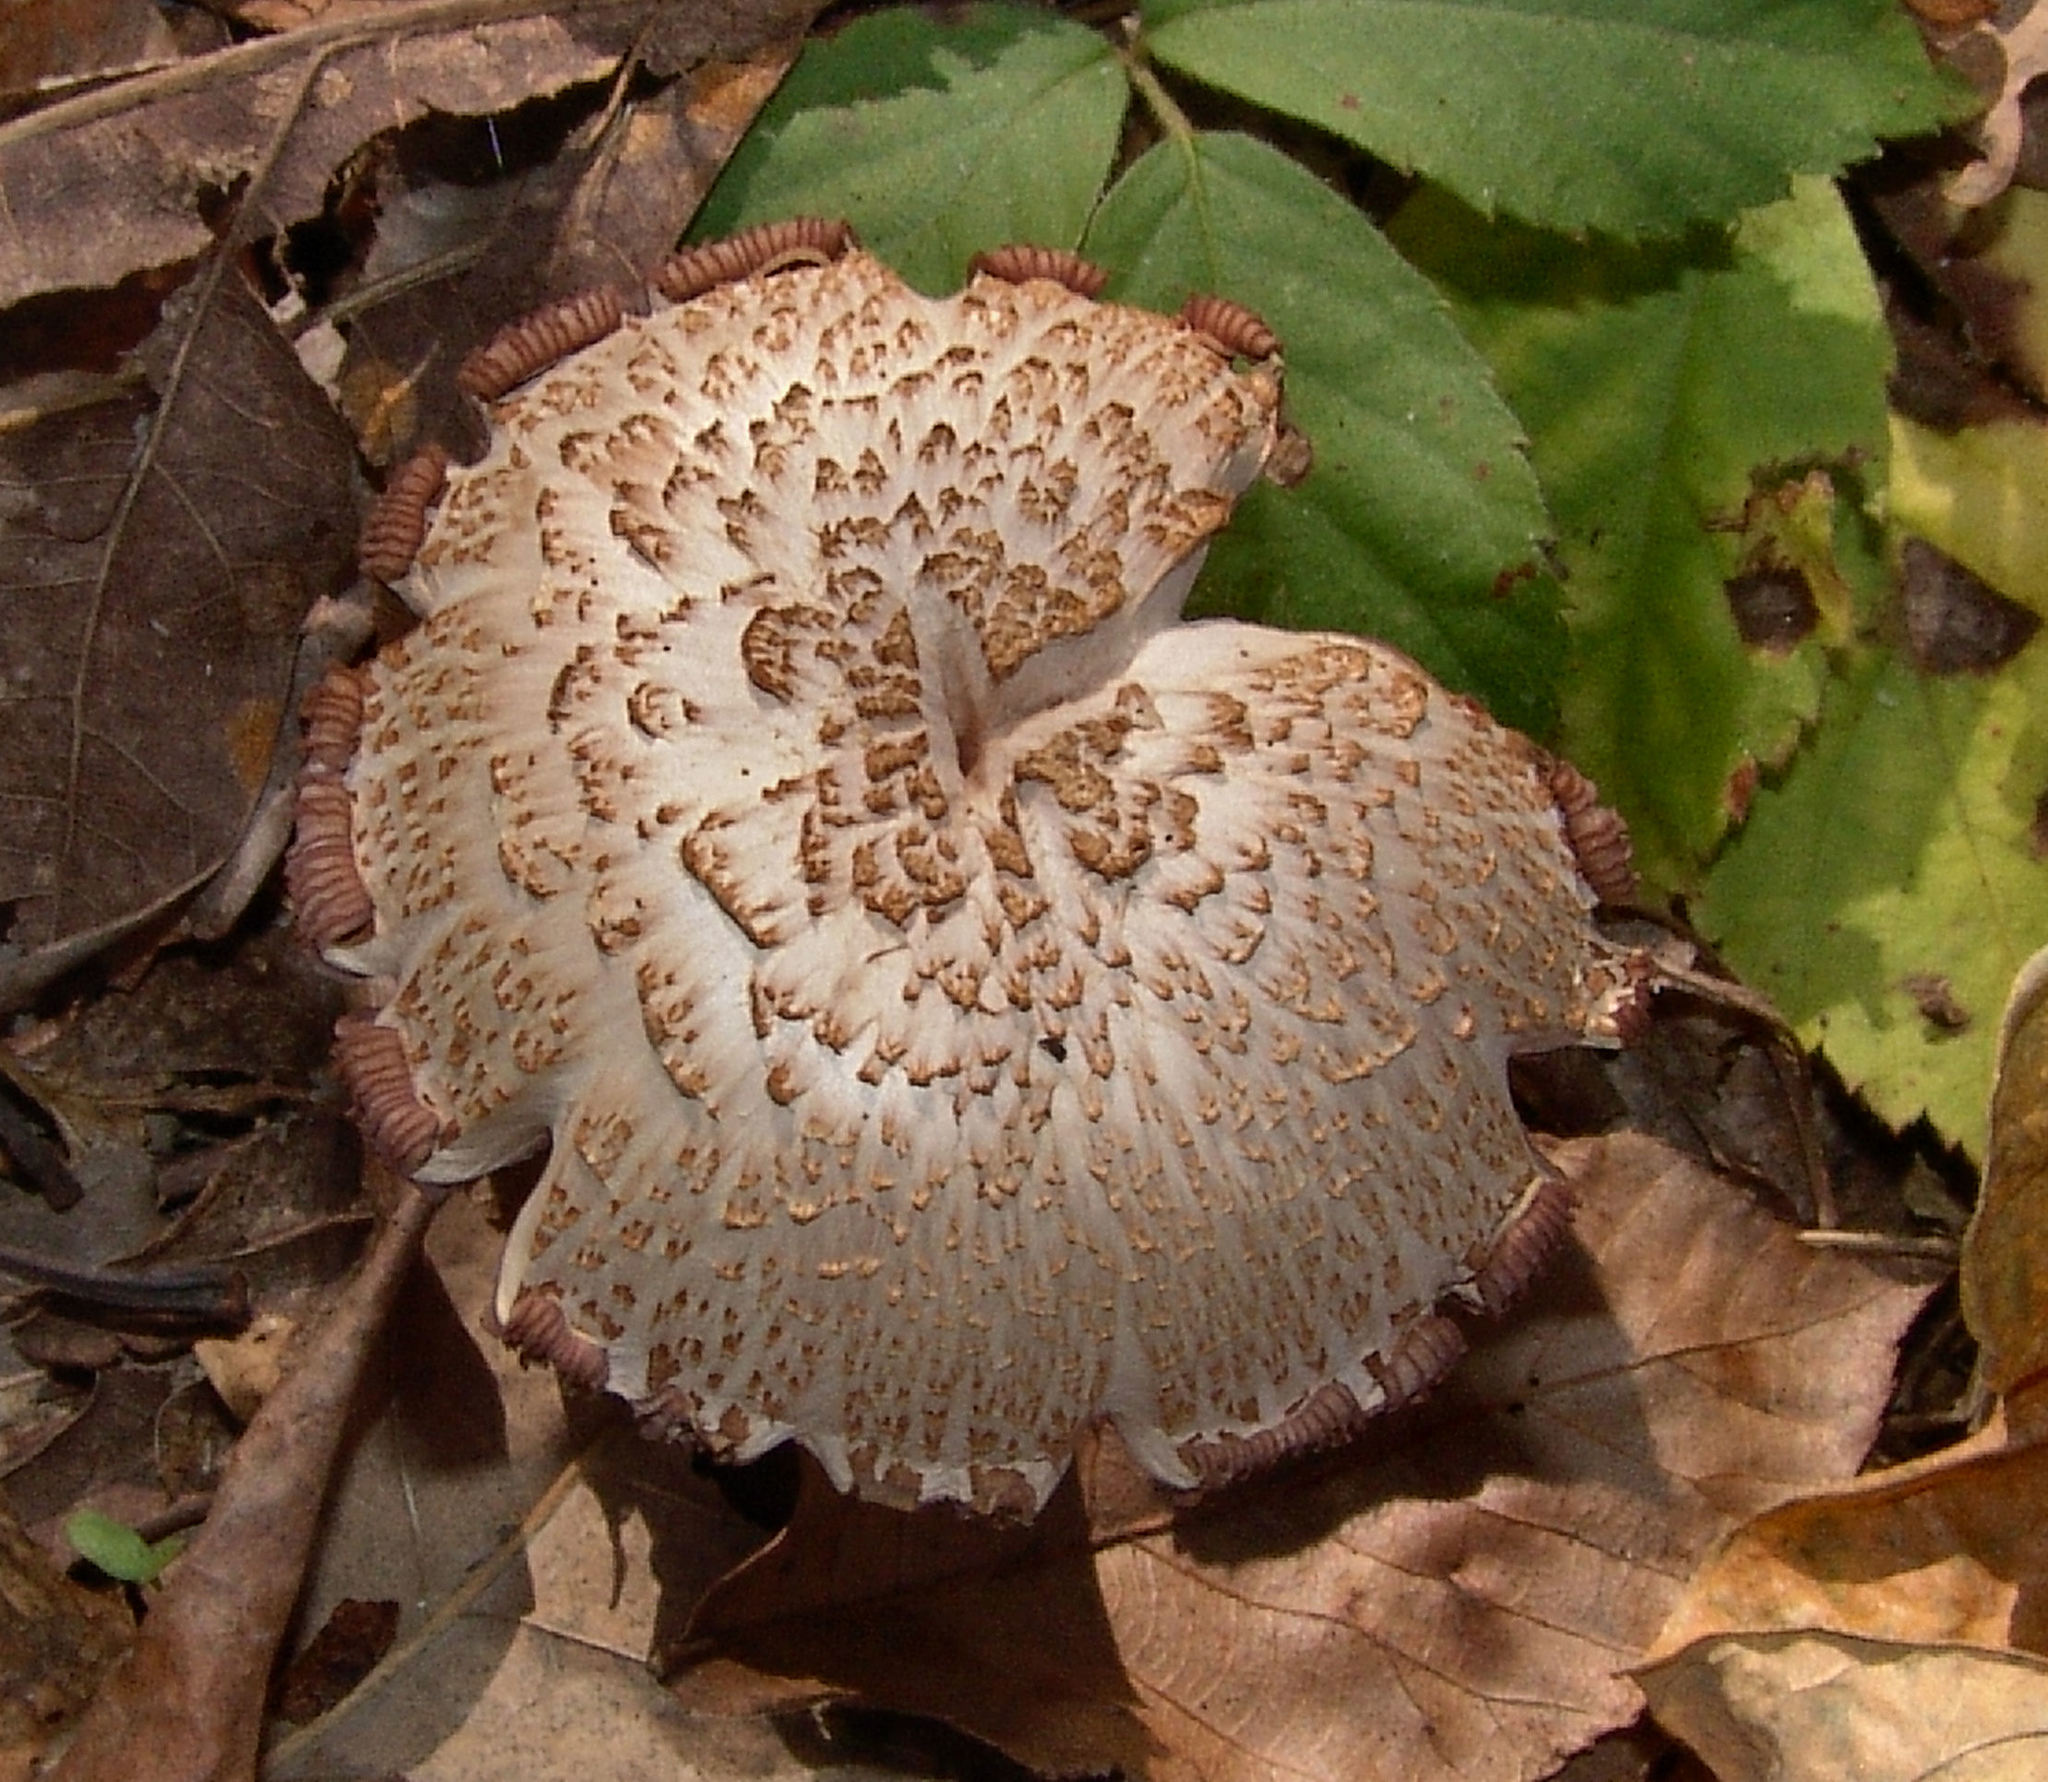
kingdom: Fungi
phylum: Basidiomycota
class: Agaricomycetes
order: Agaricales
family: Hydnangiaceae
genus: Laccaria
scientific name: Laccaria ochropurpurea
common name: Purple laccaria
